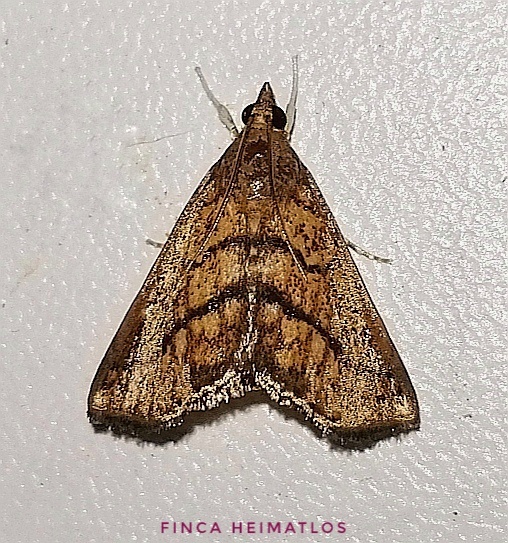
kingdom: Animalia
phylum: Arthropoda
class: Insecta
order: Lepidoptera
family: Crambidae
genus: Chilozela
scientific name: Chilozela trapeziana
